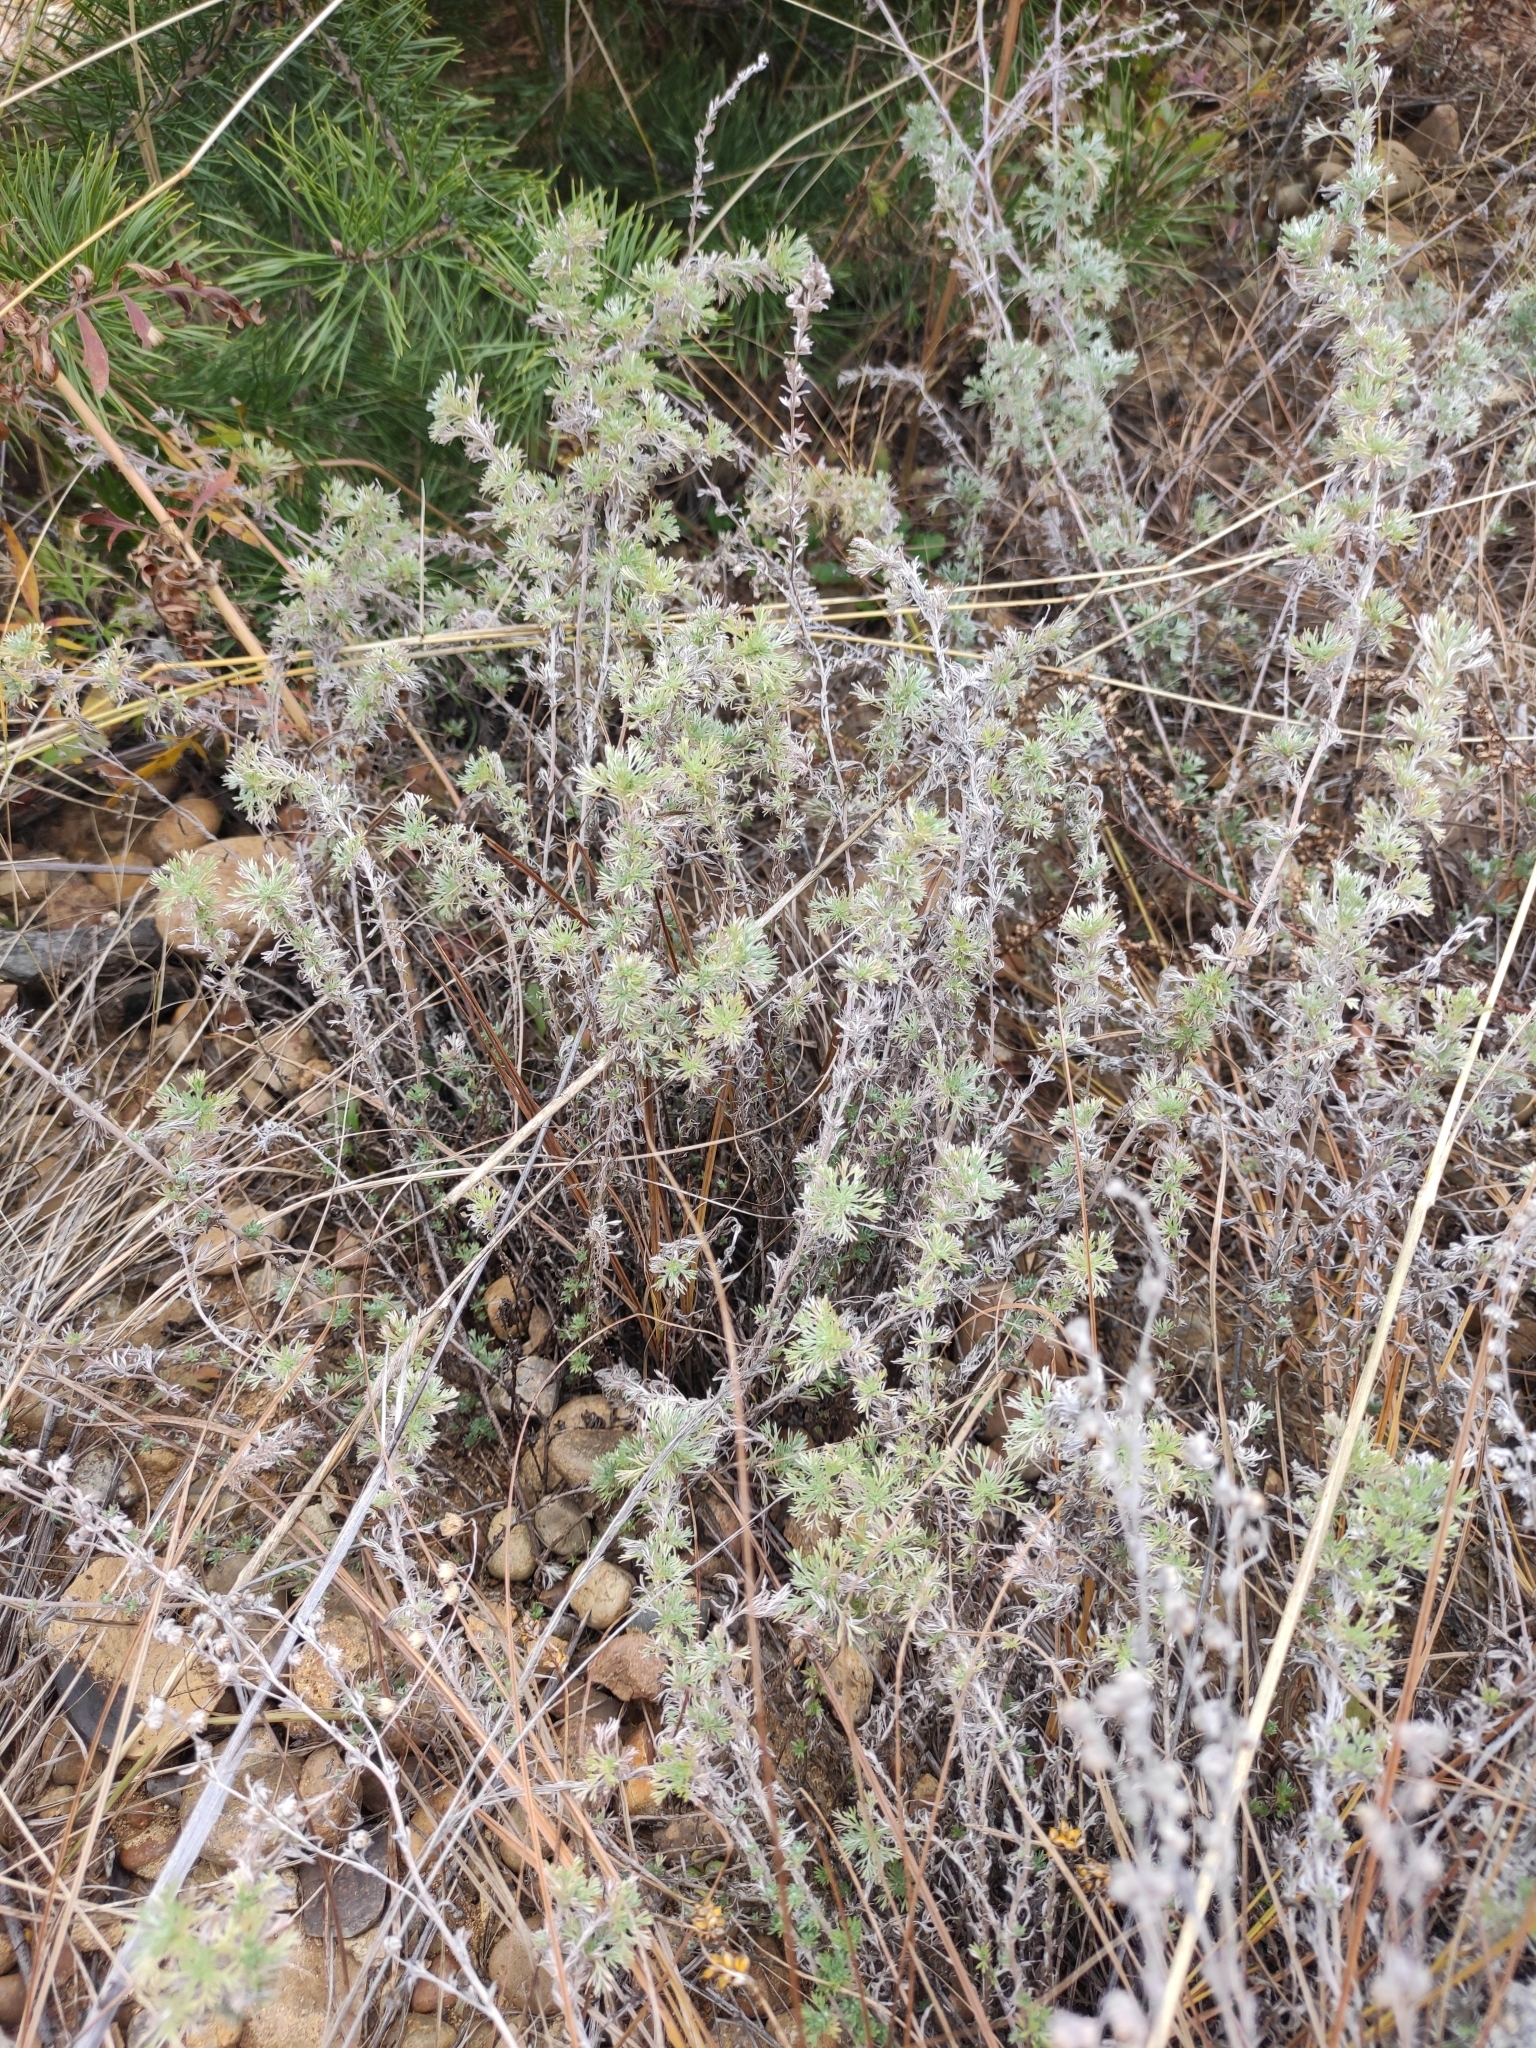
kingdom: Plantae
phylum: Tracheophyta
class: Magnoliopsida
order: Asterales
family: Asteraceae
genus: Artemisia
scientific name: Artemisia frigida
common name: Prairie sagewort
